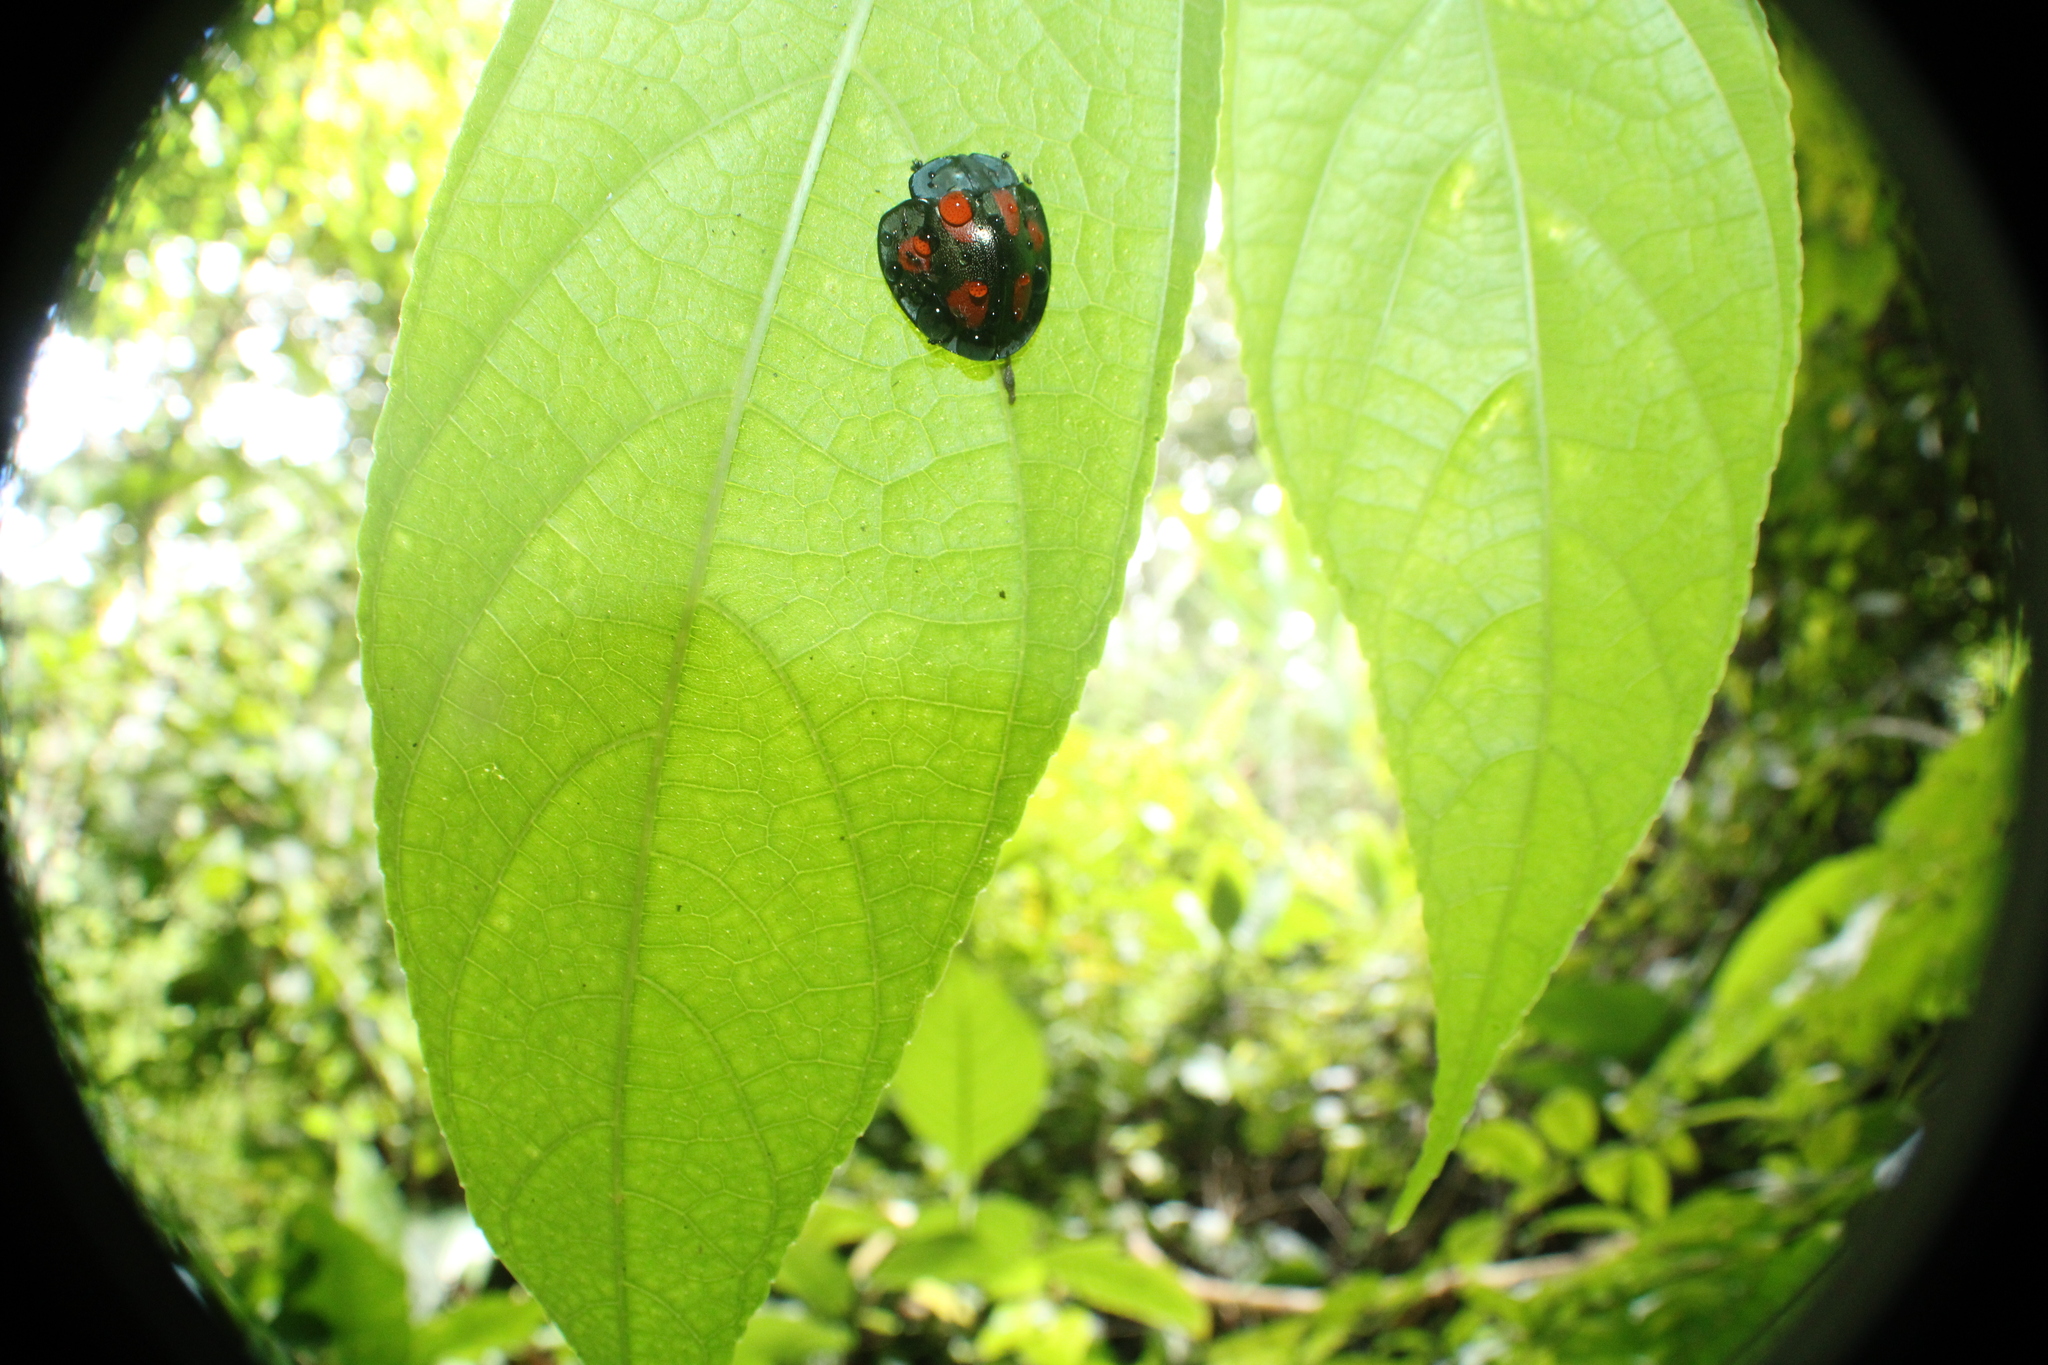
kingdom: Animalia
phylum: Arthropoda
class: Insecta
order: Coleoptera
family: Chrysomelidae
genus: Stolas
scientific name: Stolas illustris
